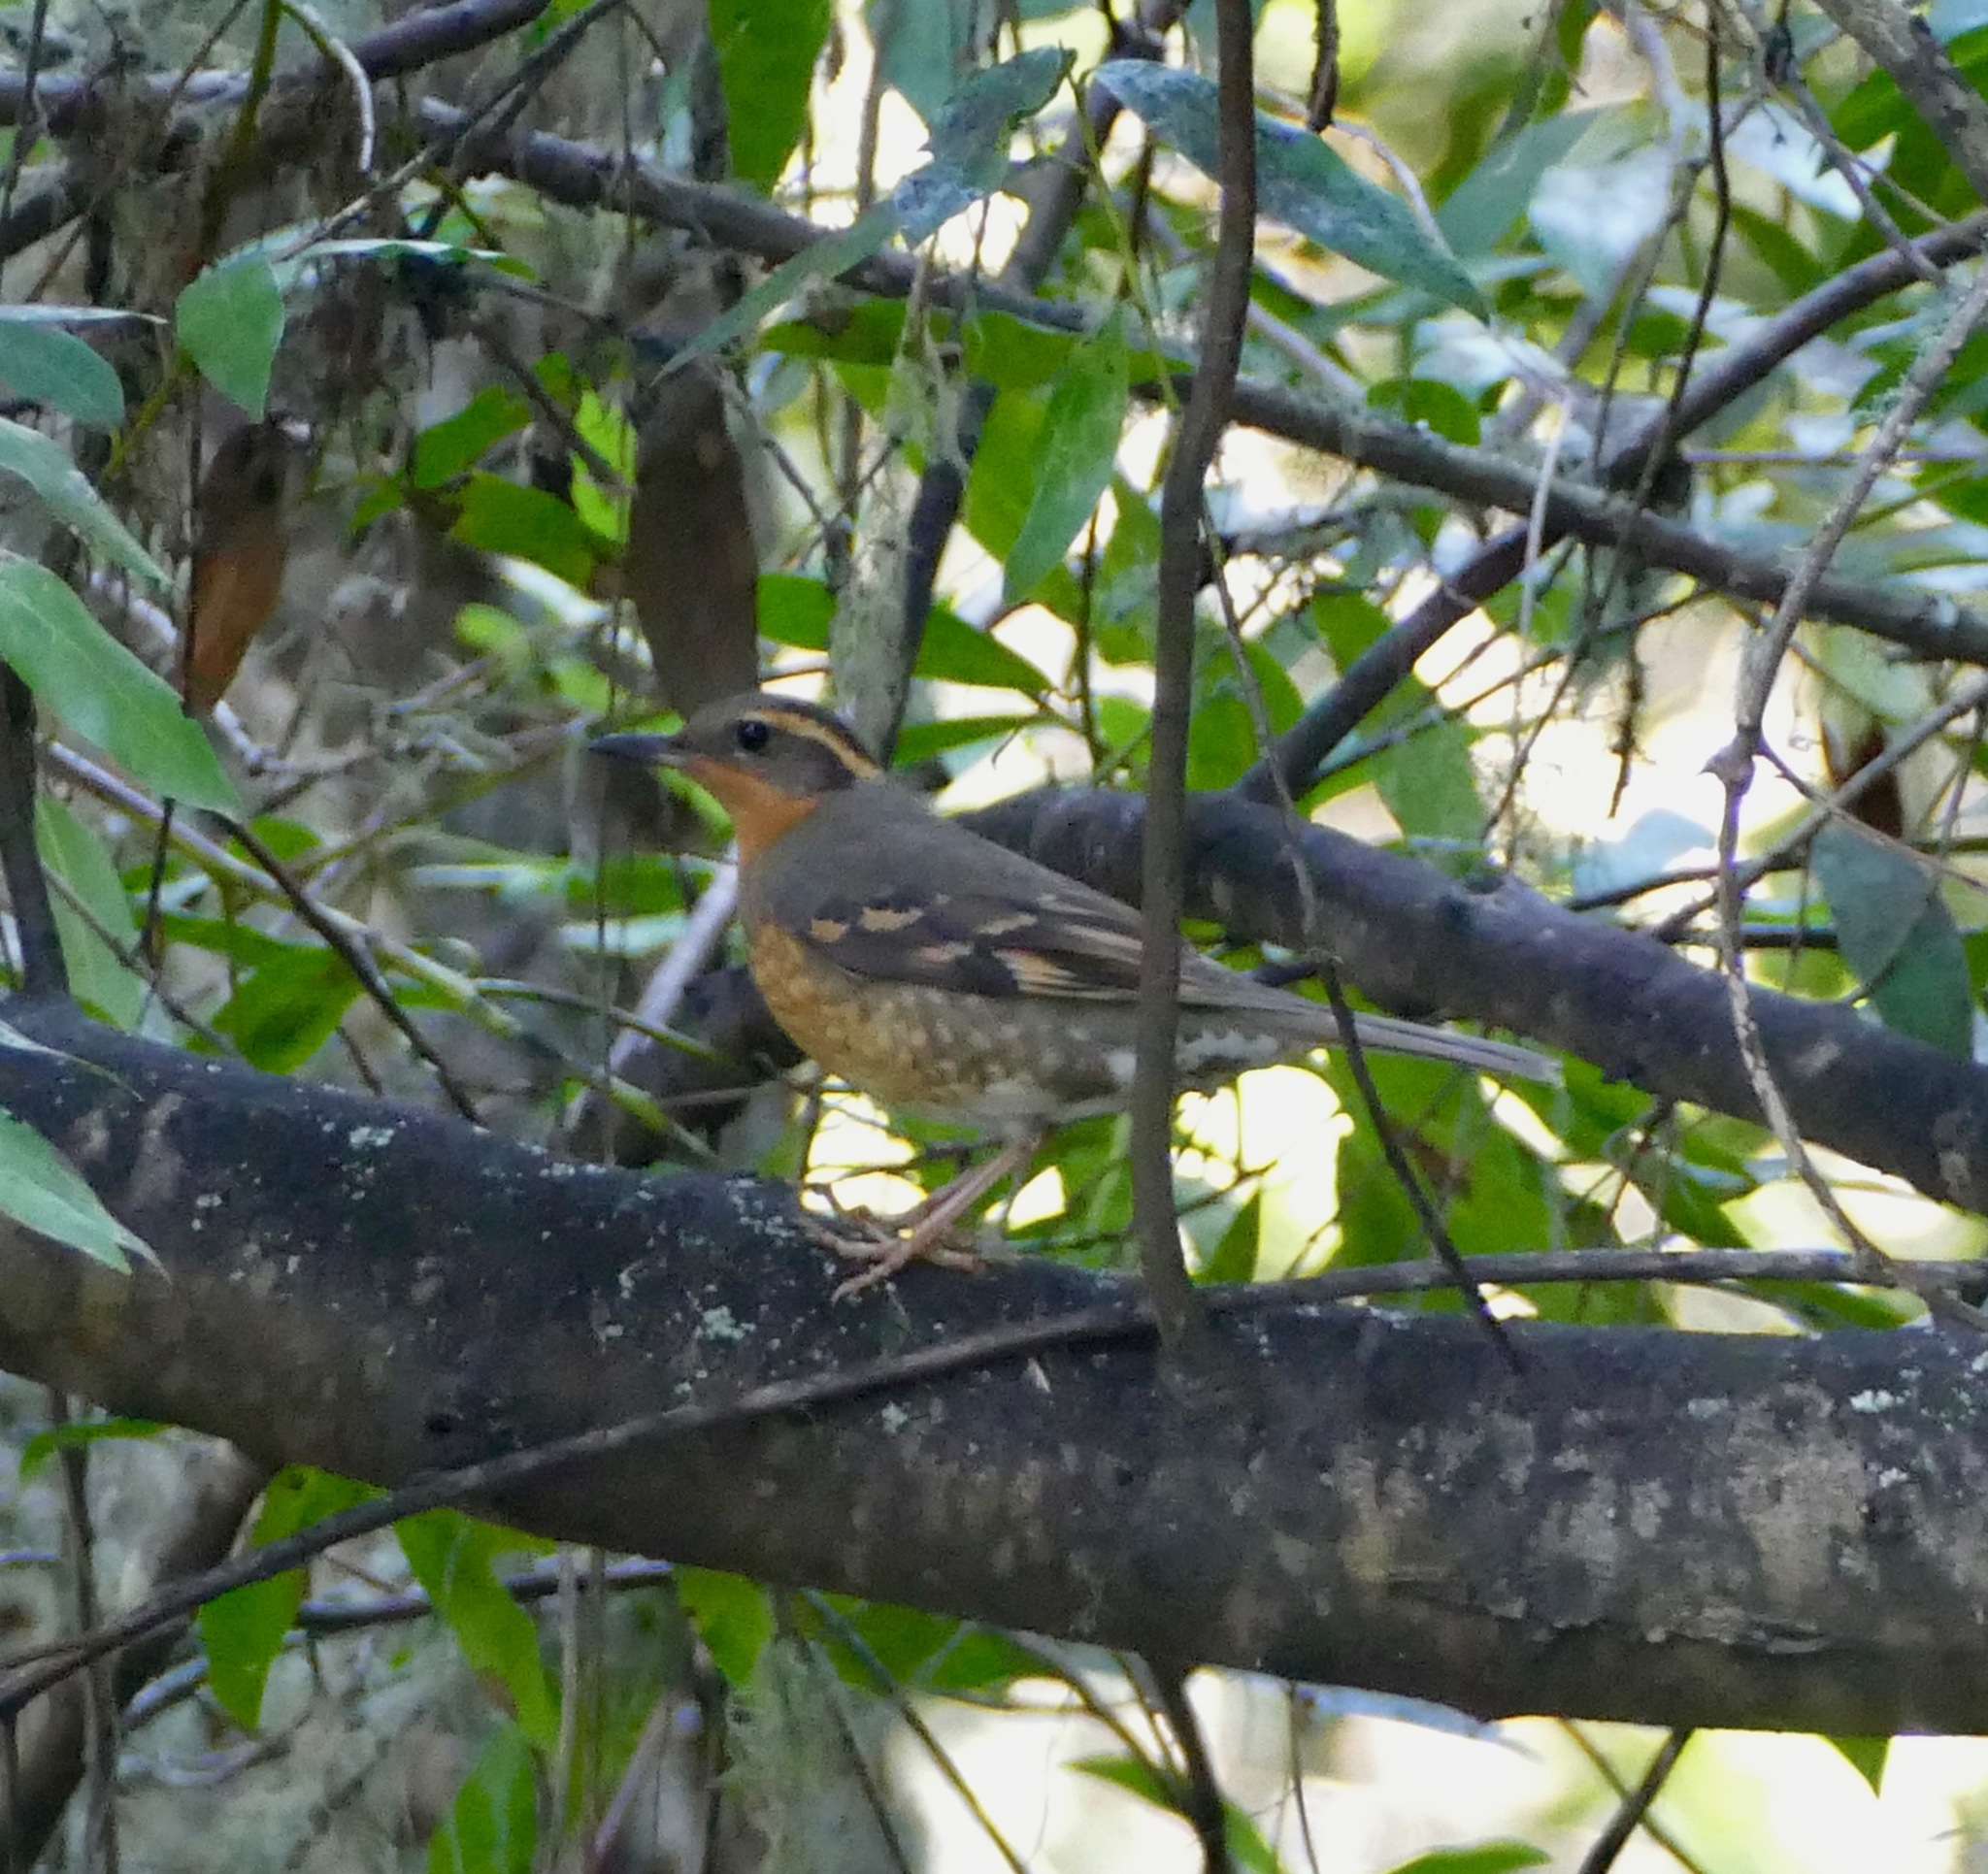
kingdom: Animalia
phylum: Chordata
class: Aves
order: Passeriformes
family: Turdidae
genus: Ixoreus
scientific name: Ixoreus naevius
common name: Varied thrush
